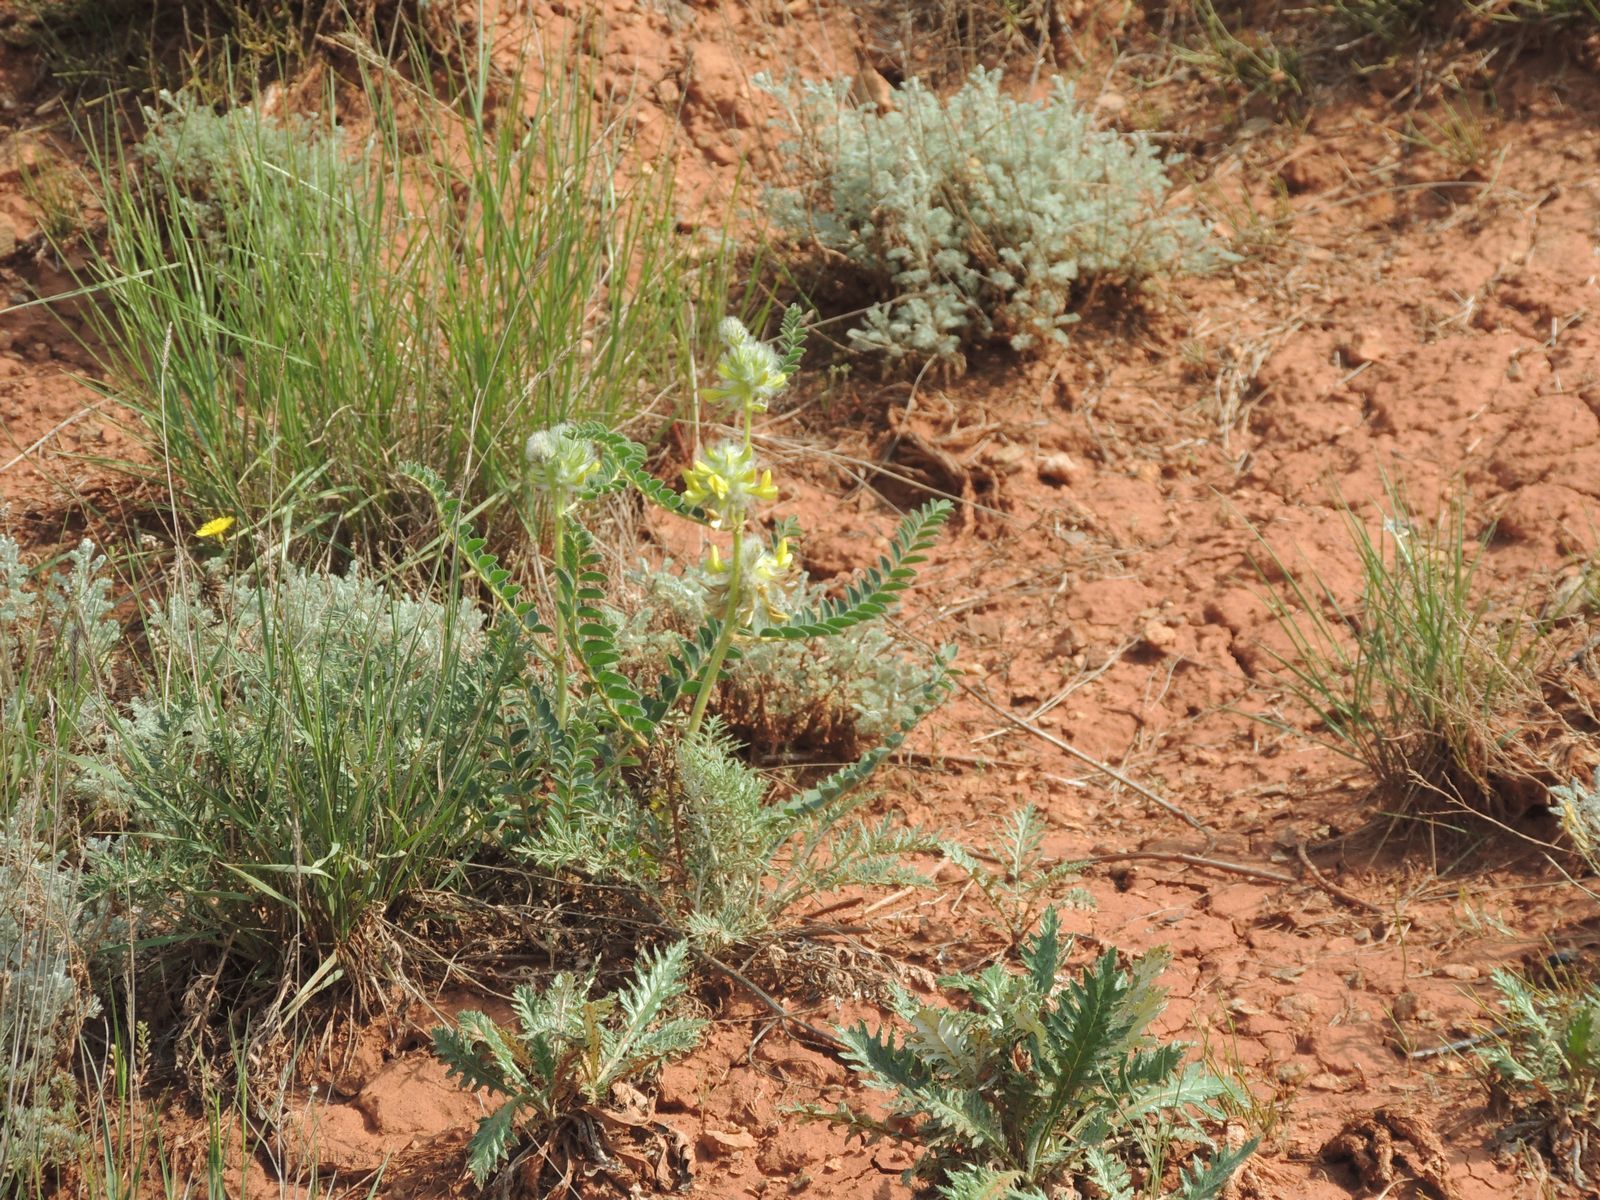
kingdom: Plantae
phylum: Tracheophyta
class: Magnoliopsida
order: Fabales
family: Fabaceae
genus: Astragalus
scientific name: Astragalus vulpinus
